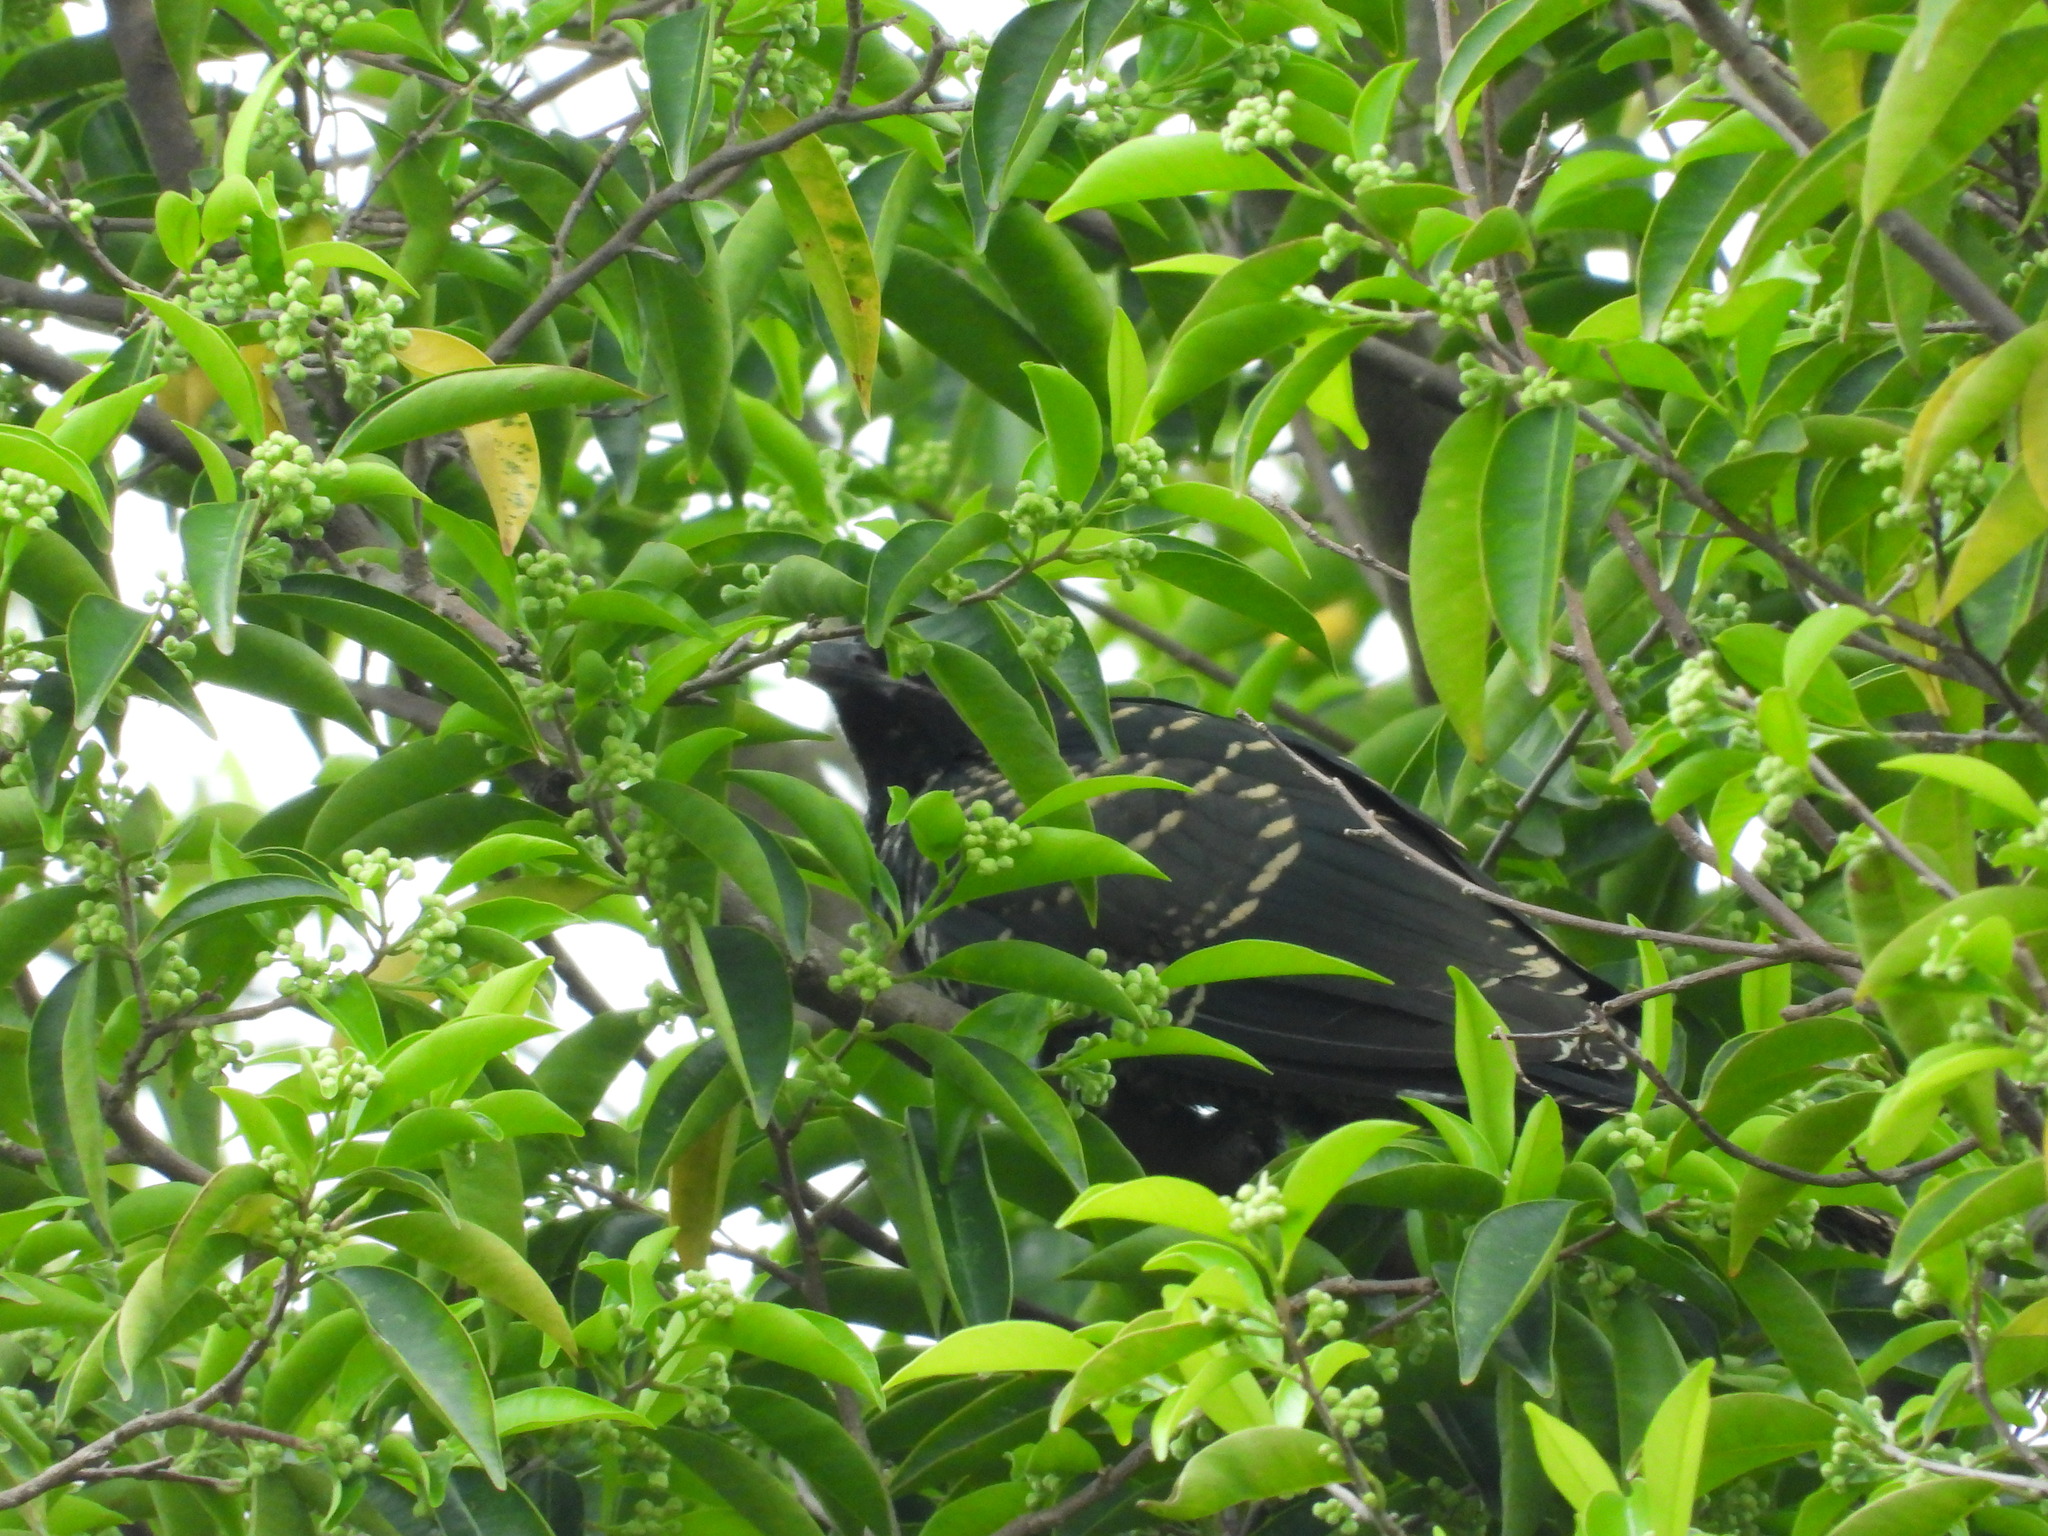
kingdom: Animalia
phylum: Chordata
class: Aves
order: Cuculiformes
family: Cuculidae
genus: Eudynamys
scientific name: Eudynamys scolopaceus
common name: Asian koel
